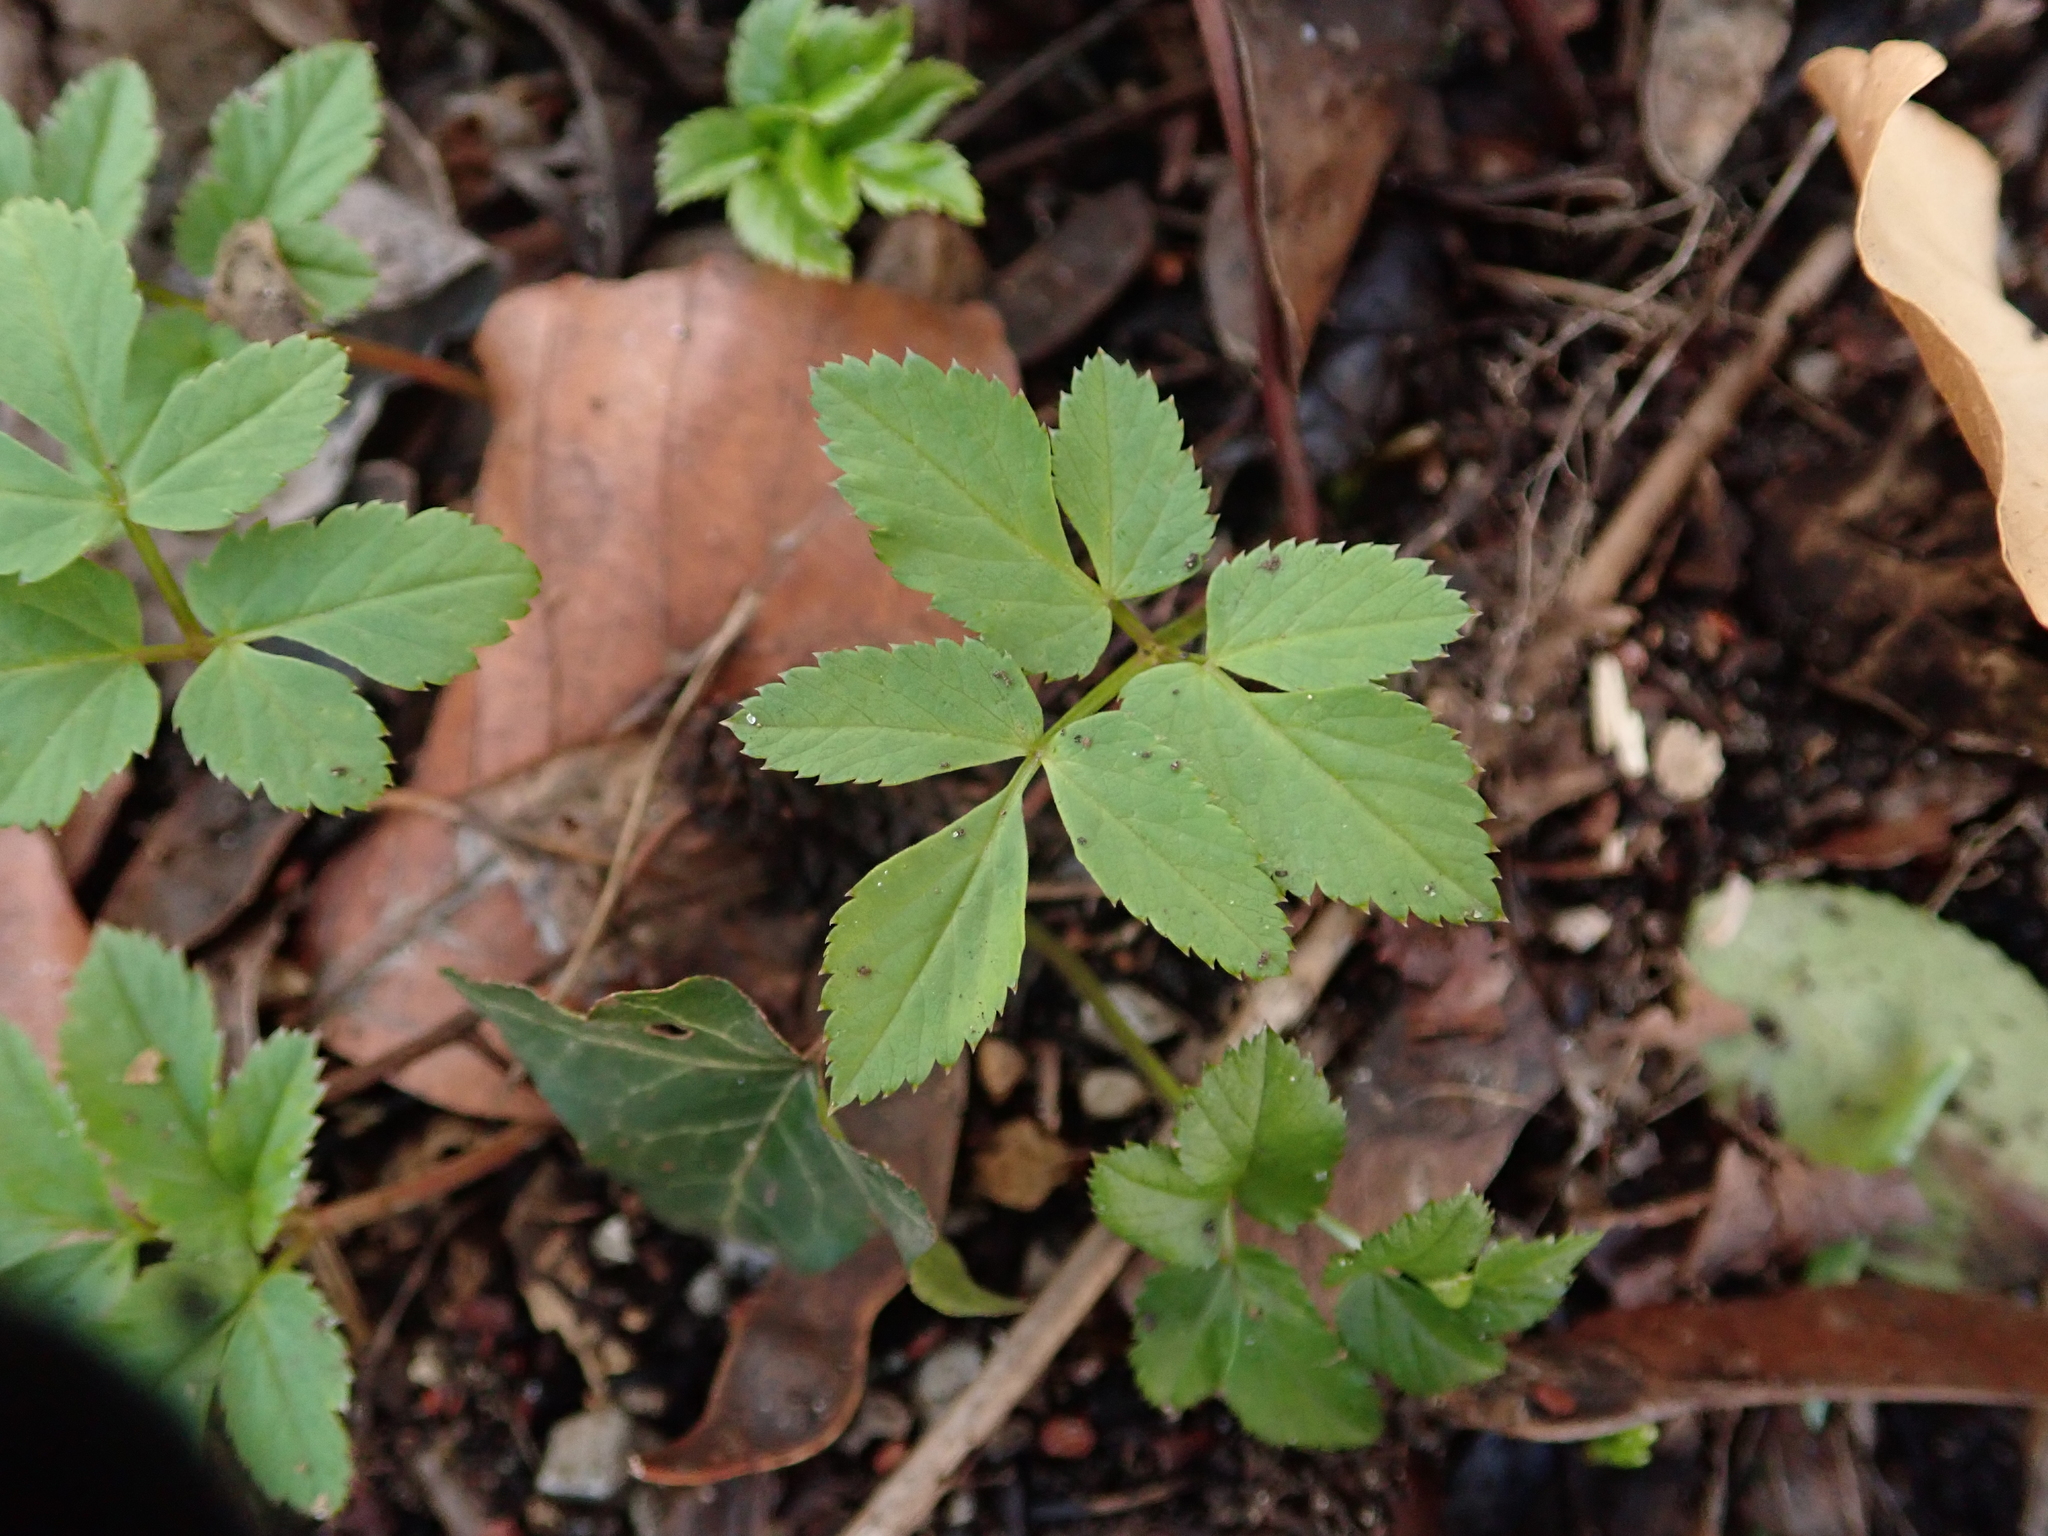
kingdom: Plantae
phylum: Tracheophyta
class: Magnoliopsida
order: Apiales
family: Apiaceae
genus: Aegopodium
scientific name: Aegopodium podagraria
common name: Ground-elder
